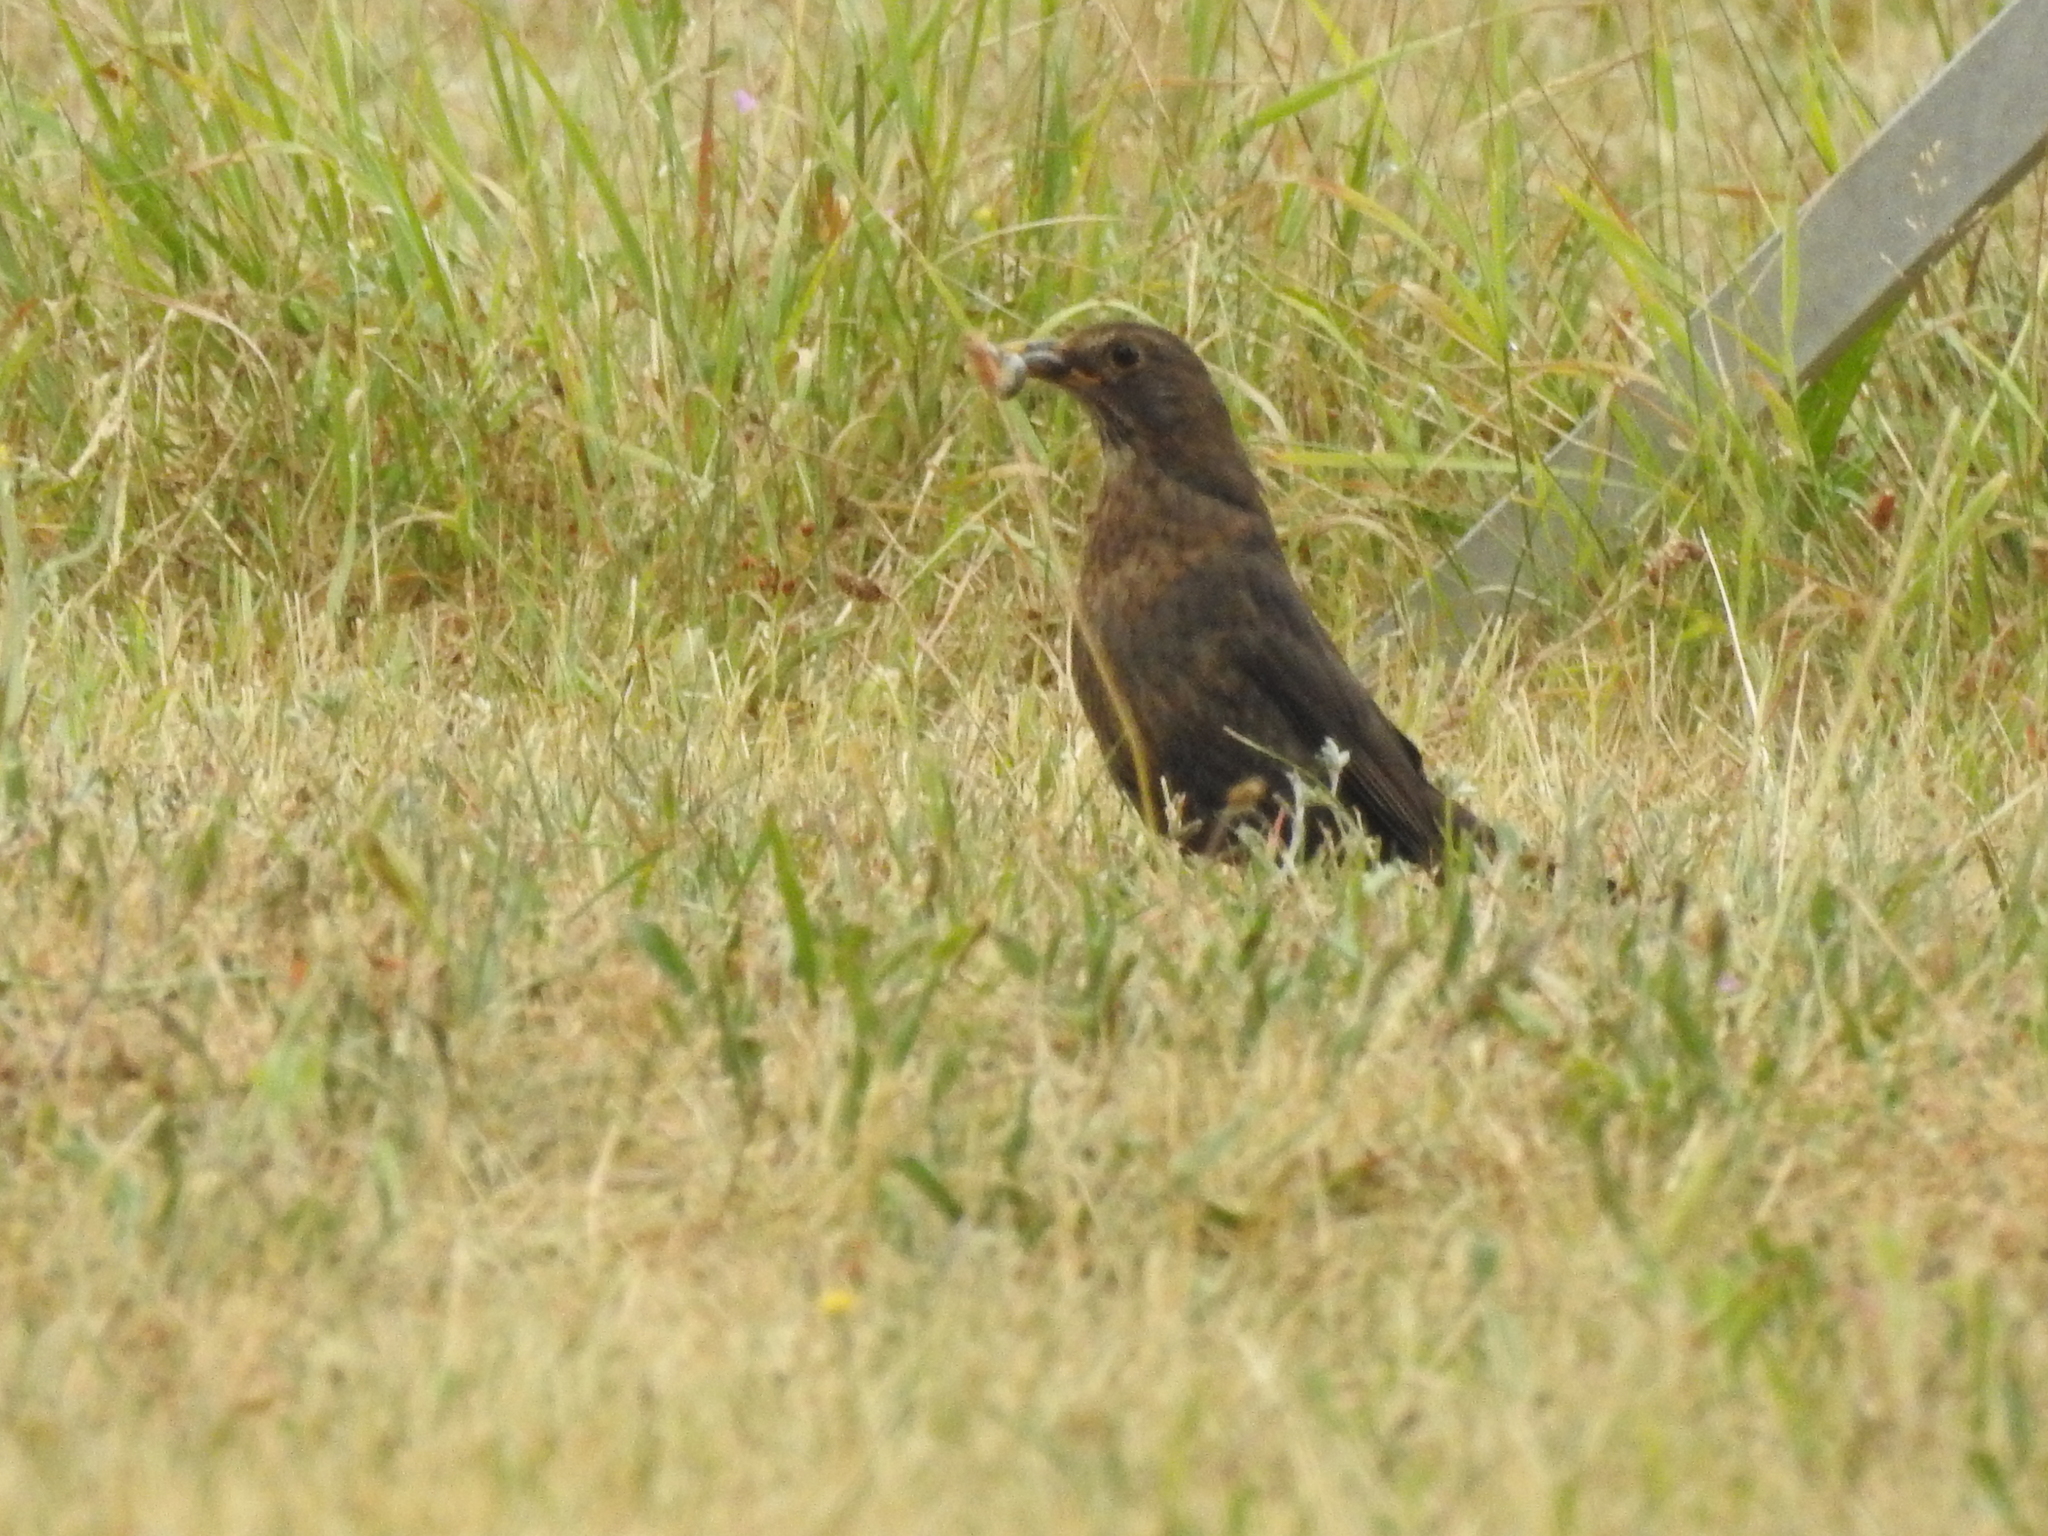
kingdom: Animalia
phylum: Chordata
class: Aves
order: Passeriformes
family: Turdidae
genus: Turdus
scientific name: Turdus merula
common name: Common blackbird
